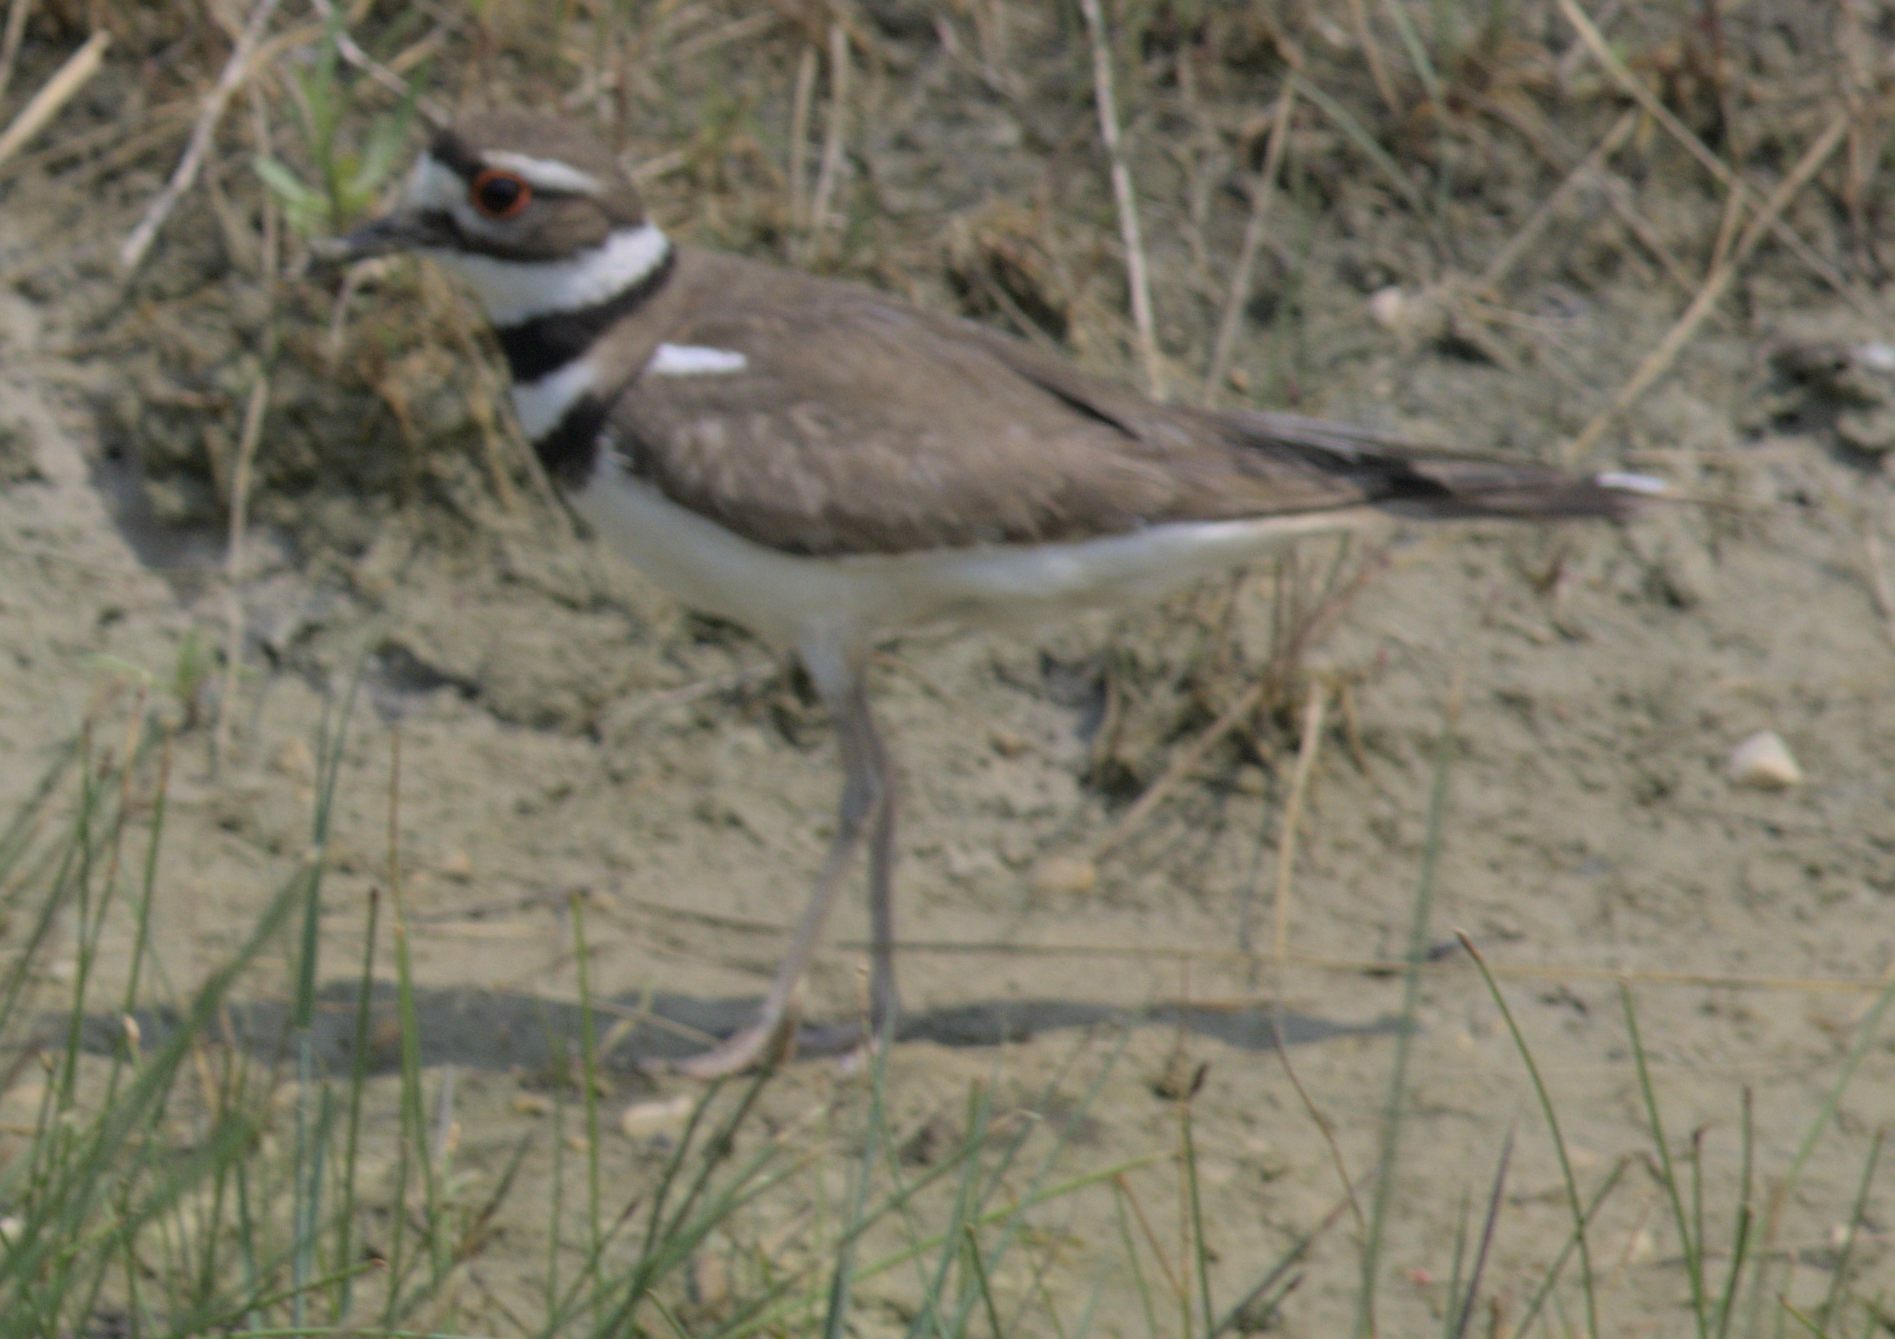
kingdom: Animalia
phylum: Chordata
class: Aves
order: Charadriiformes
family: Charadriidae
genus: Charadrius
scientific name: Charadrius vociferus
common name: Killdeer
